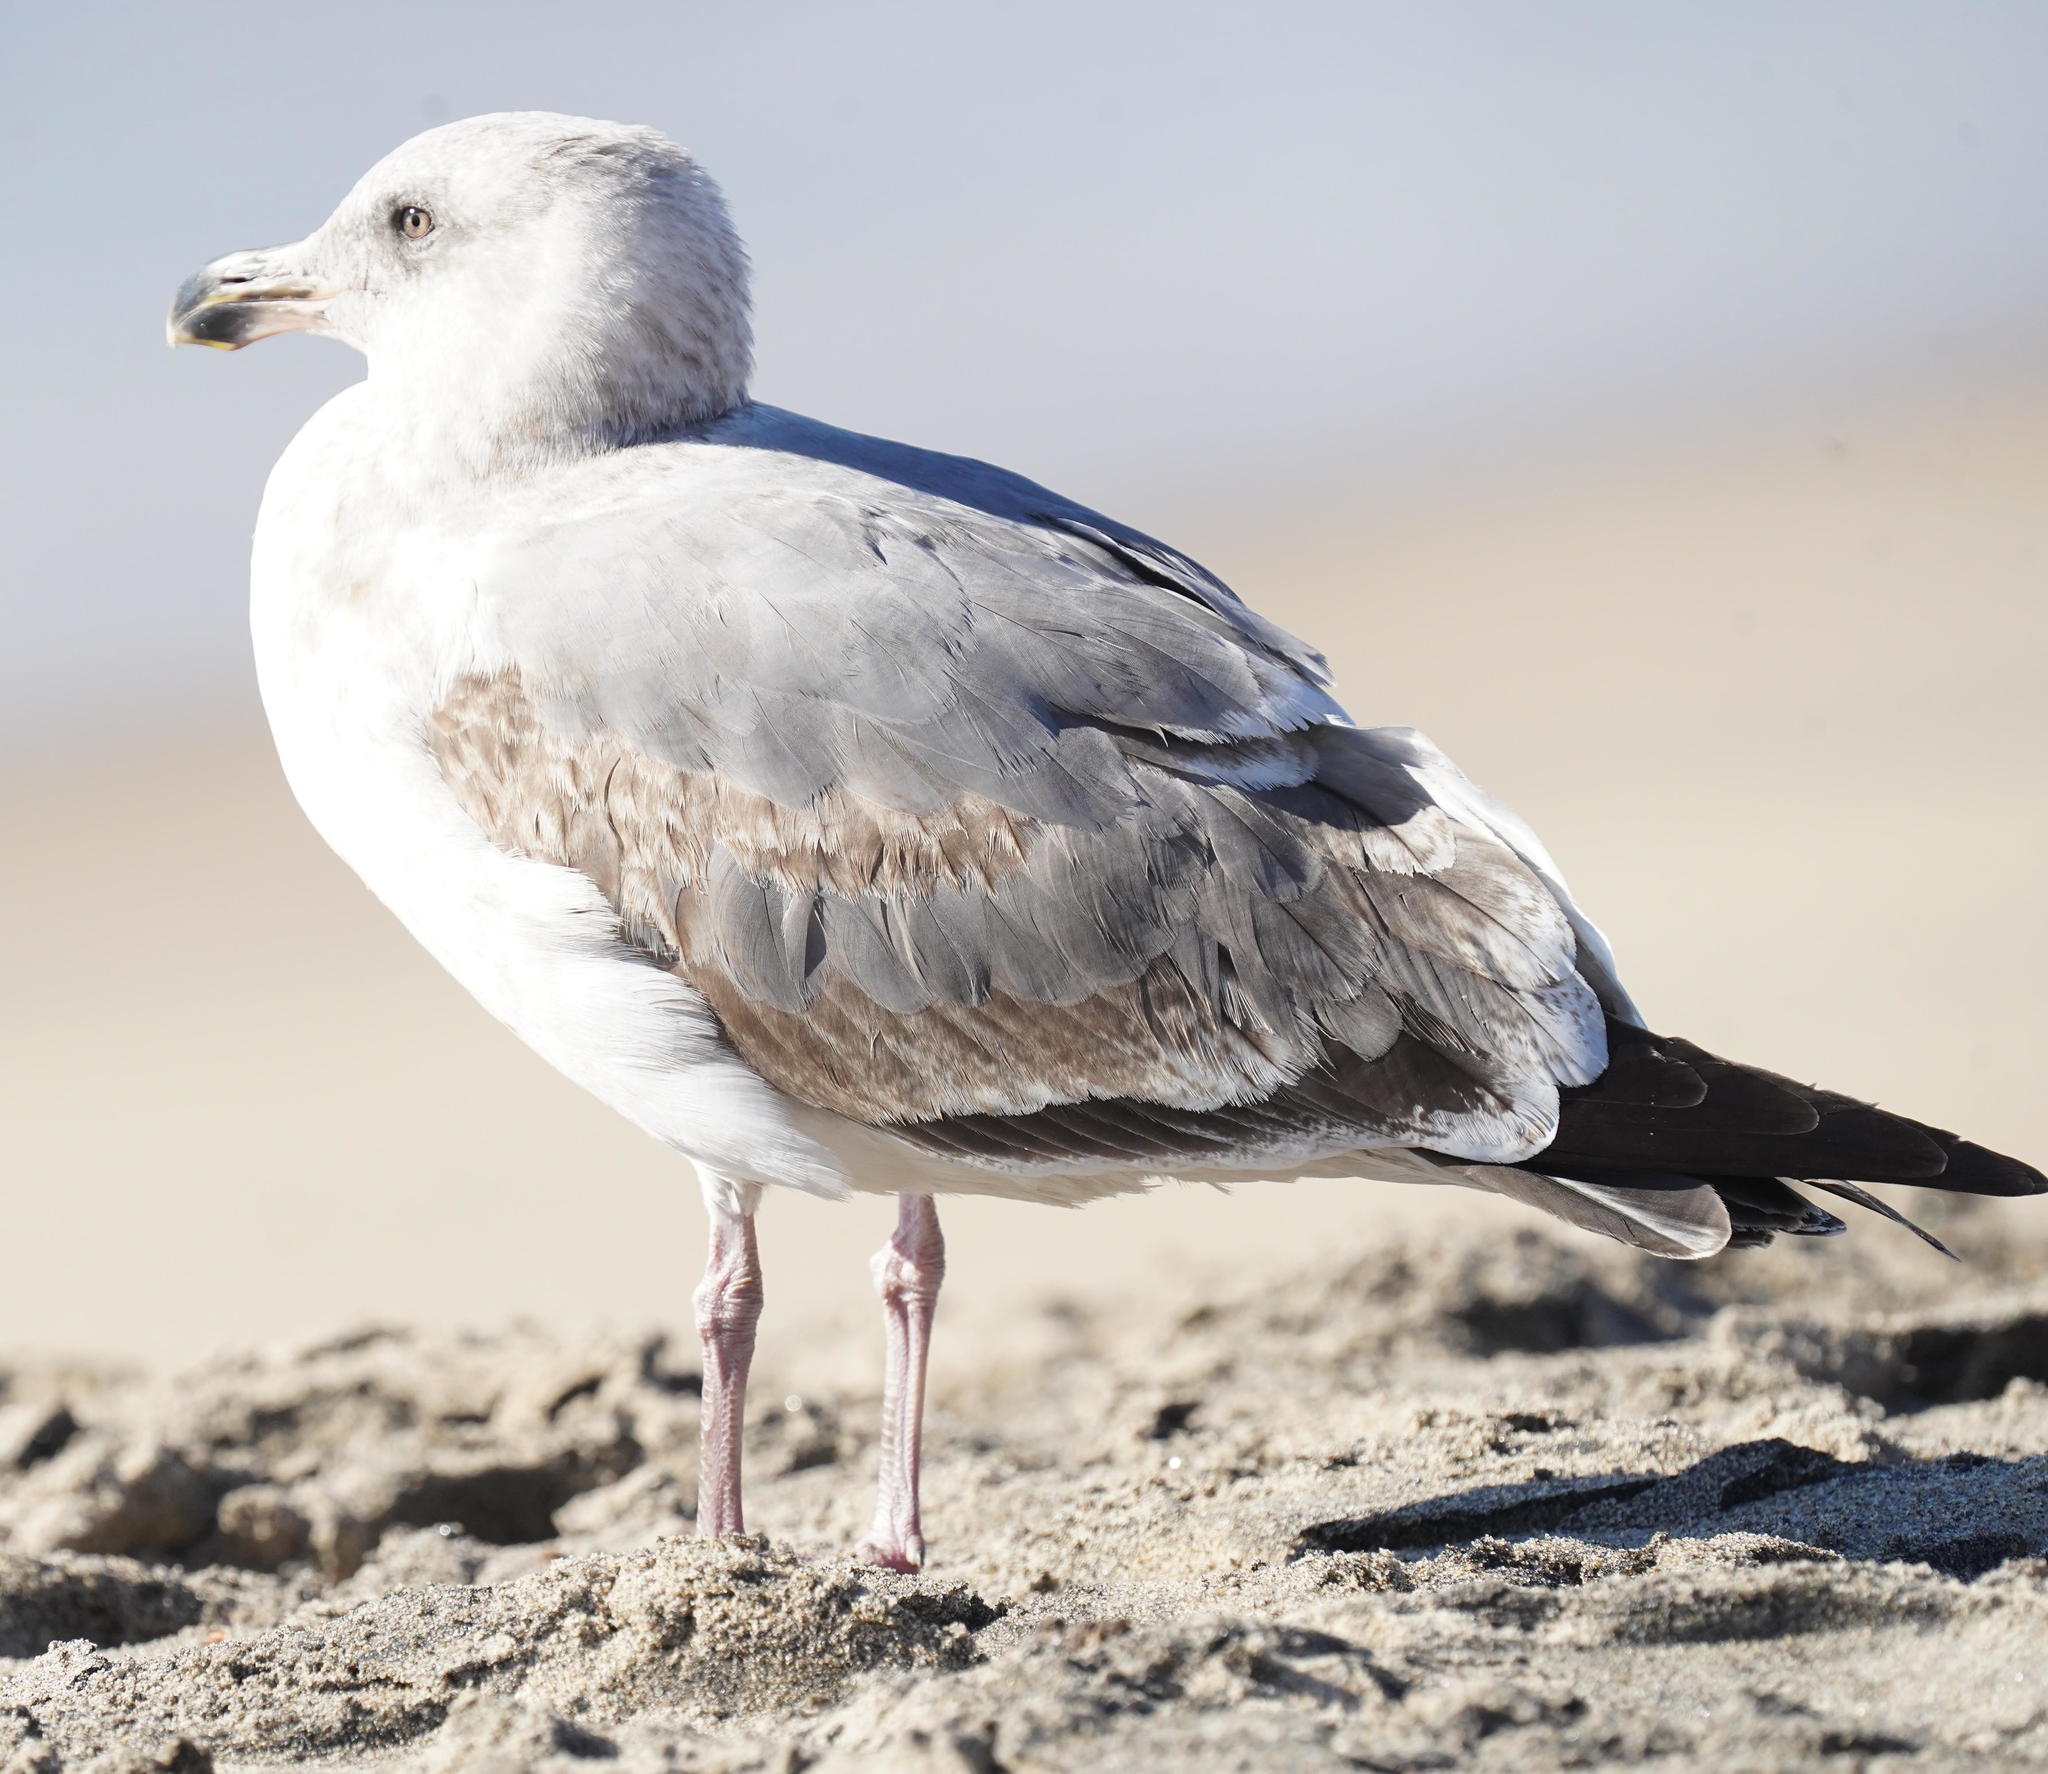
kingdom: Animalia
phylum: Chordata
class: Aves
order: Charadriiformes
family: Laridae
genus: Larus
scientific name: Larus occidentalis
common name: Western gull
